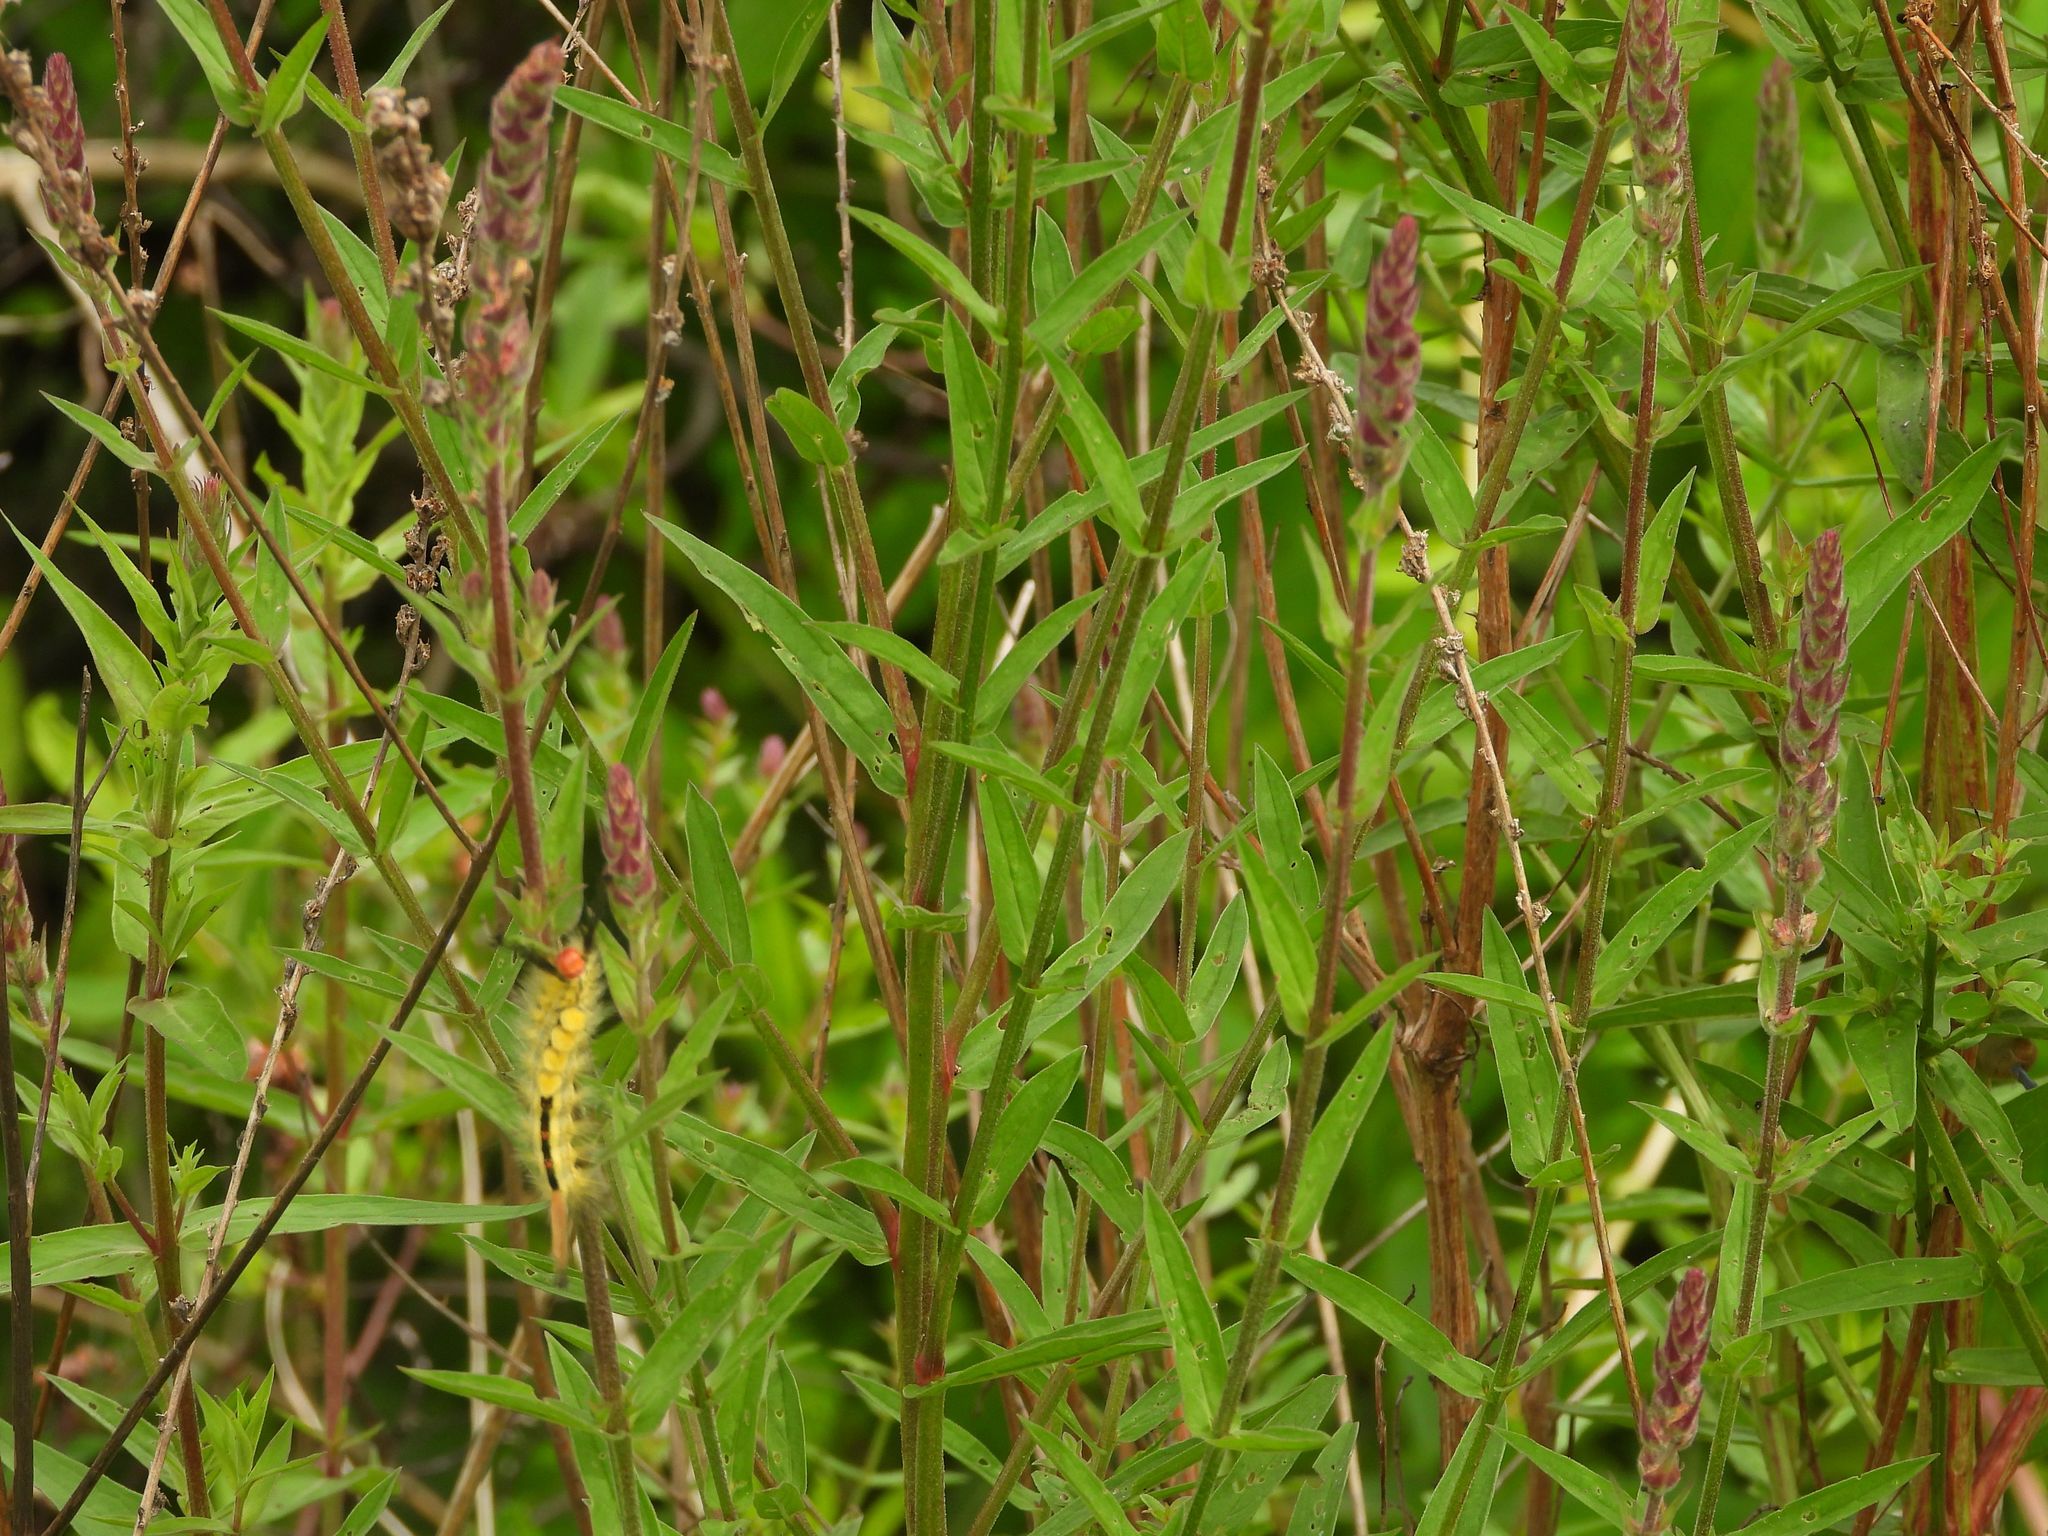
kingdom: Plantae
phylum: Tracheophyta
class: Magnoliopsida
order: Myrtales
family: Lythraceae
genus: Lythrum
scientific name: Lythrum salicaria
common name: Purple loosestrife
